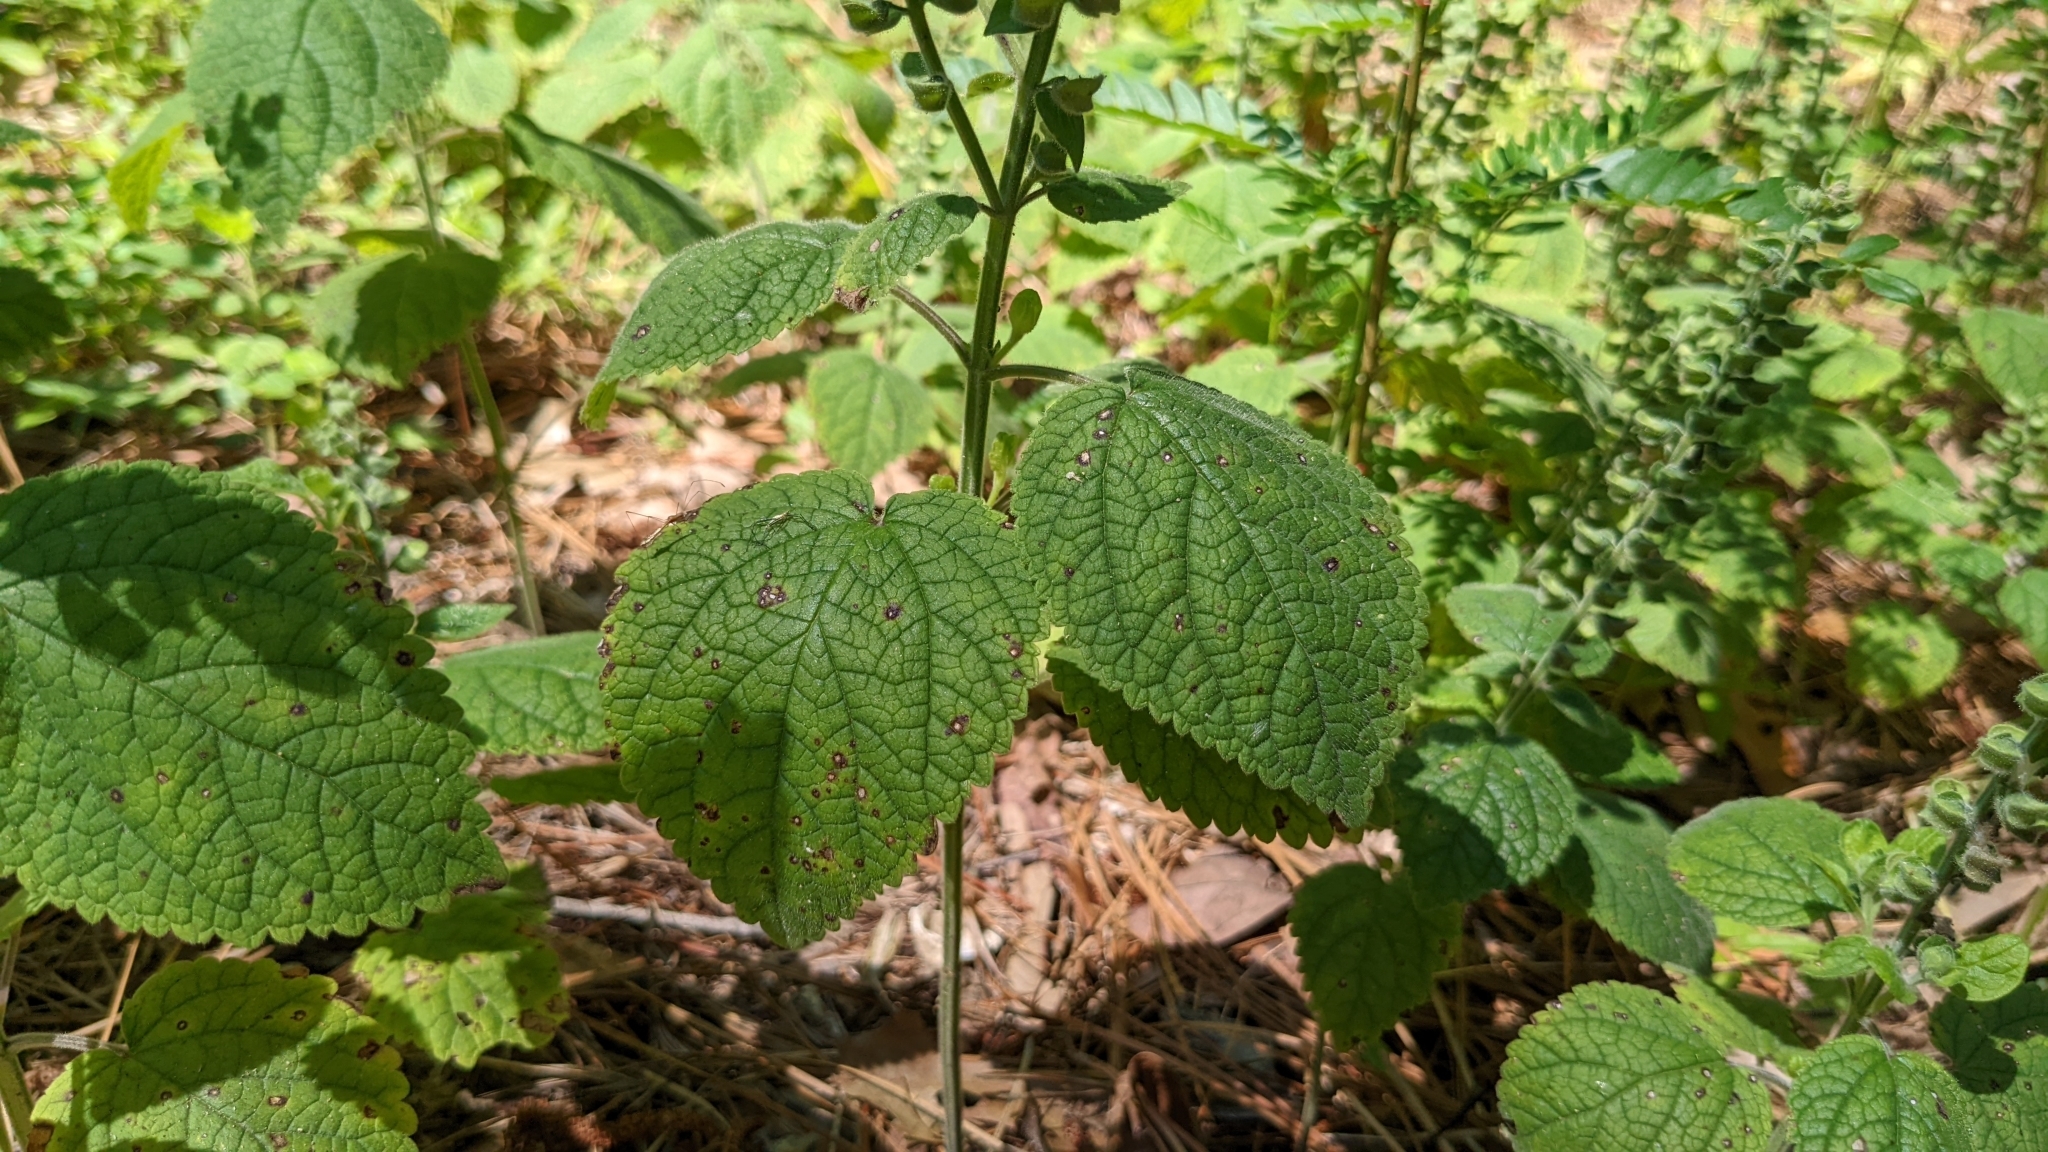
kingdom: Plantae
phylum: Tracheophyta
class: Magnoliopsida
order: Lamiales
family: Lamiaceae
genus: Scutellaria
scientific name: Scutellaria ovata
